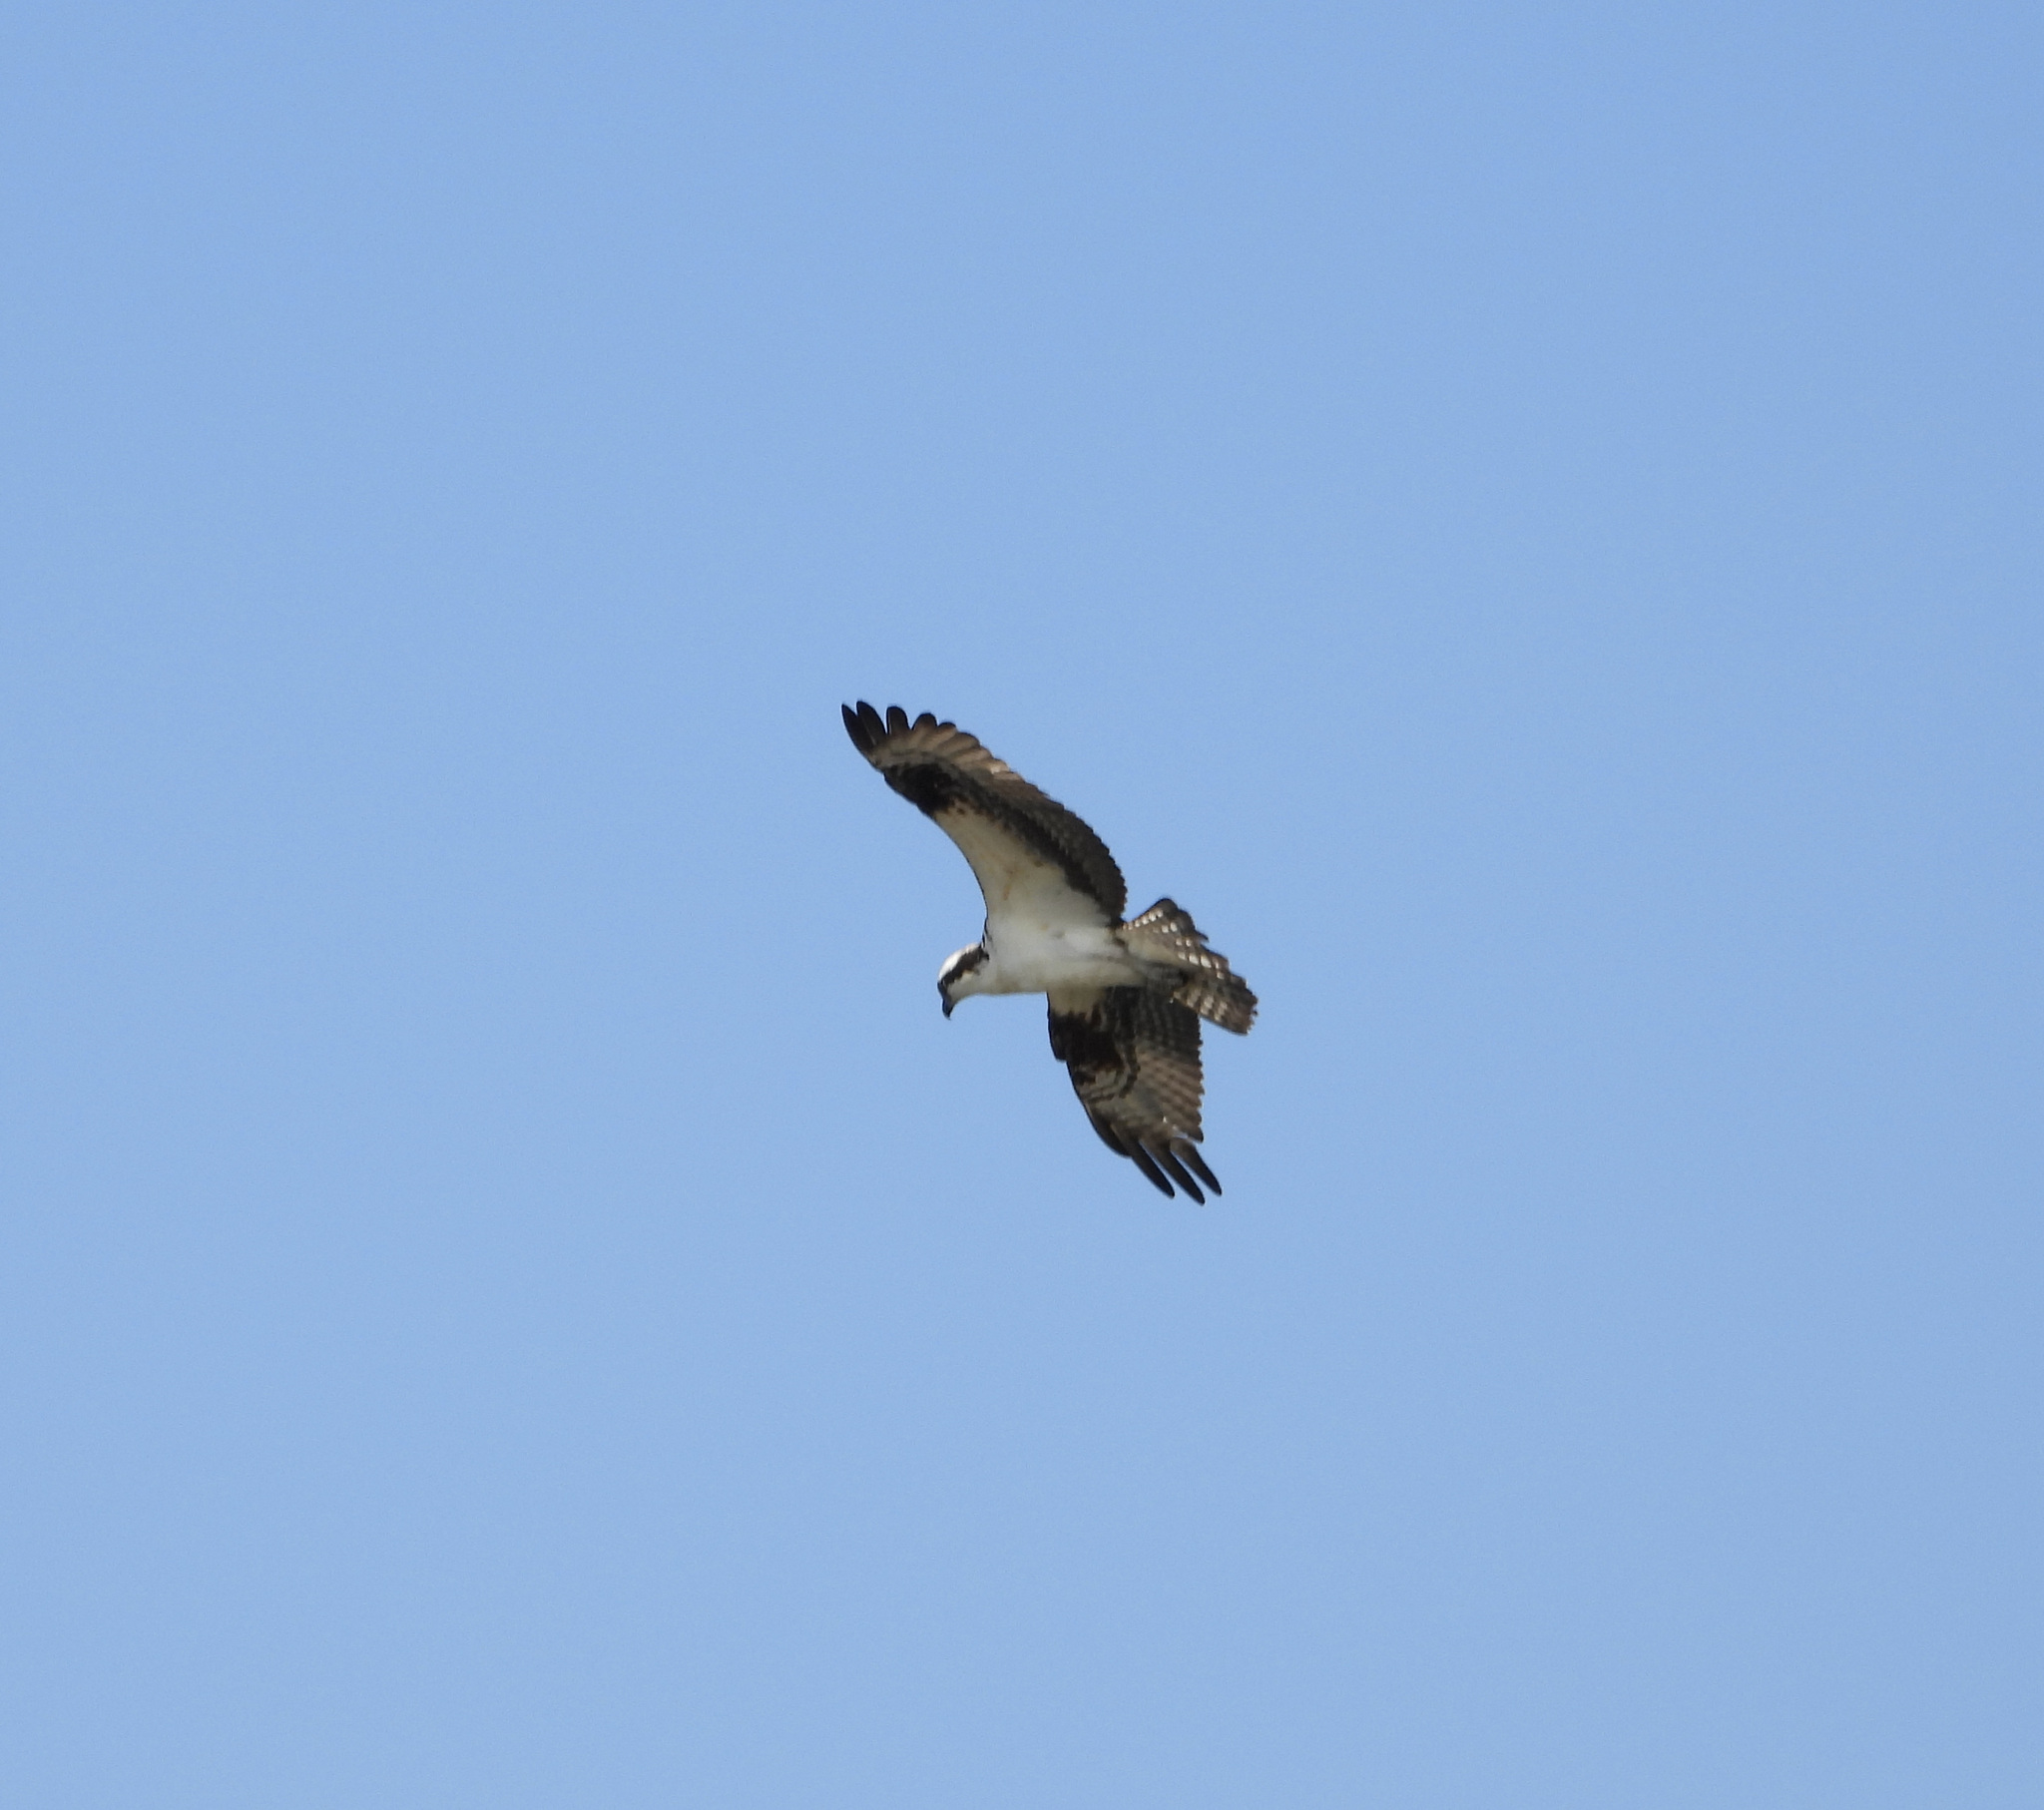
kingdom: Animalia
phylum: Chordata
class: Aves
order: Accipitriformes
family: Pandionidae
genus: Pandion
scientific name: Pandion haliaetus
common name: Osprey
